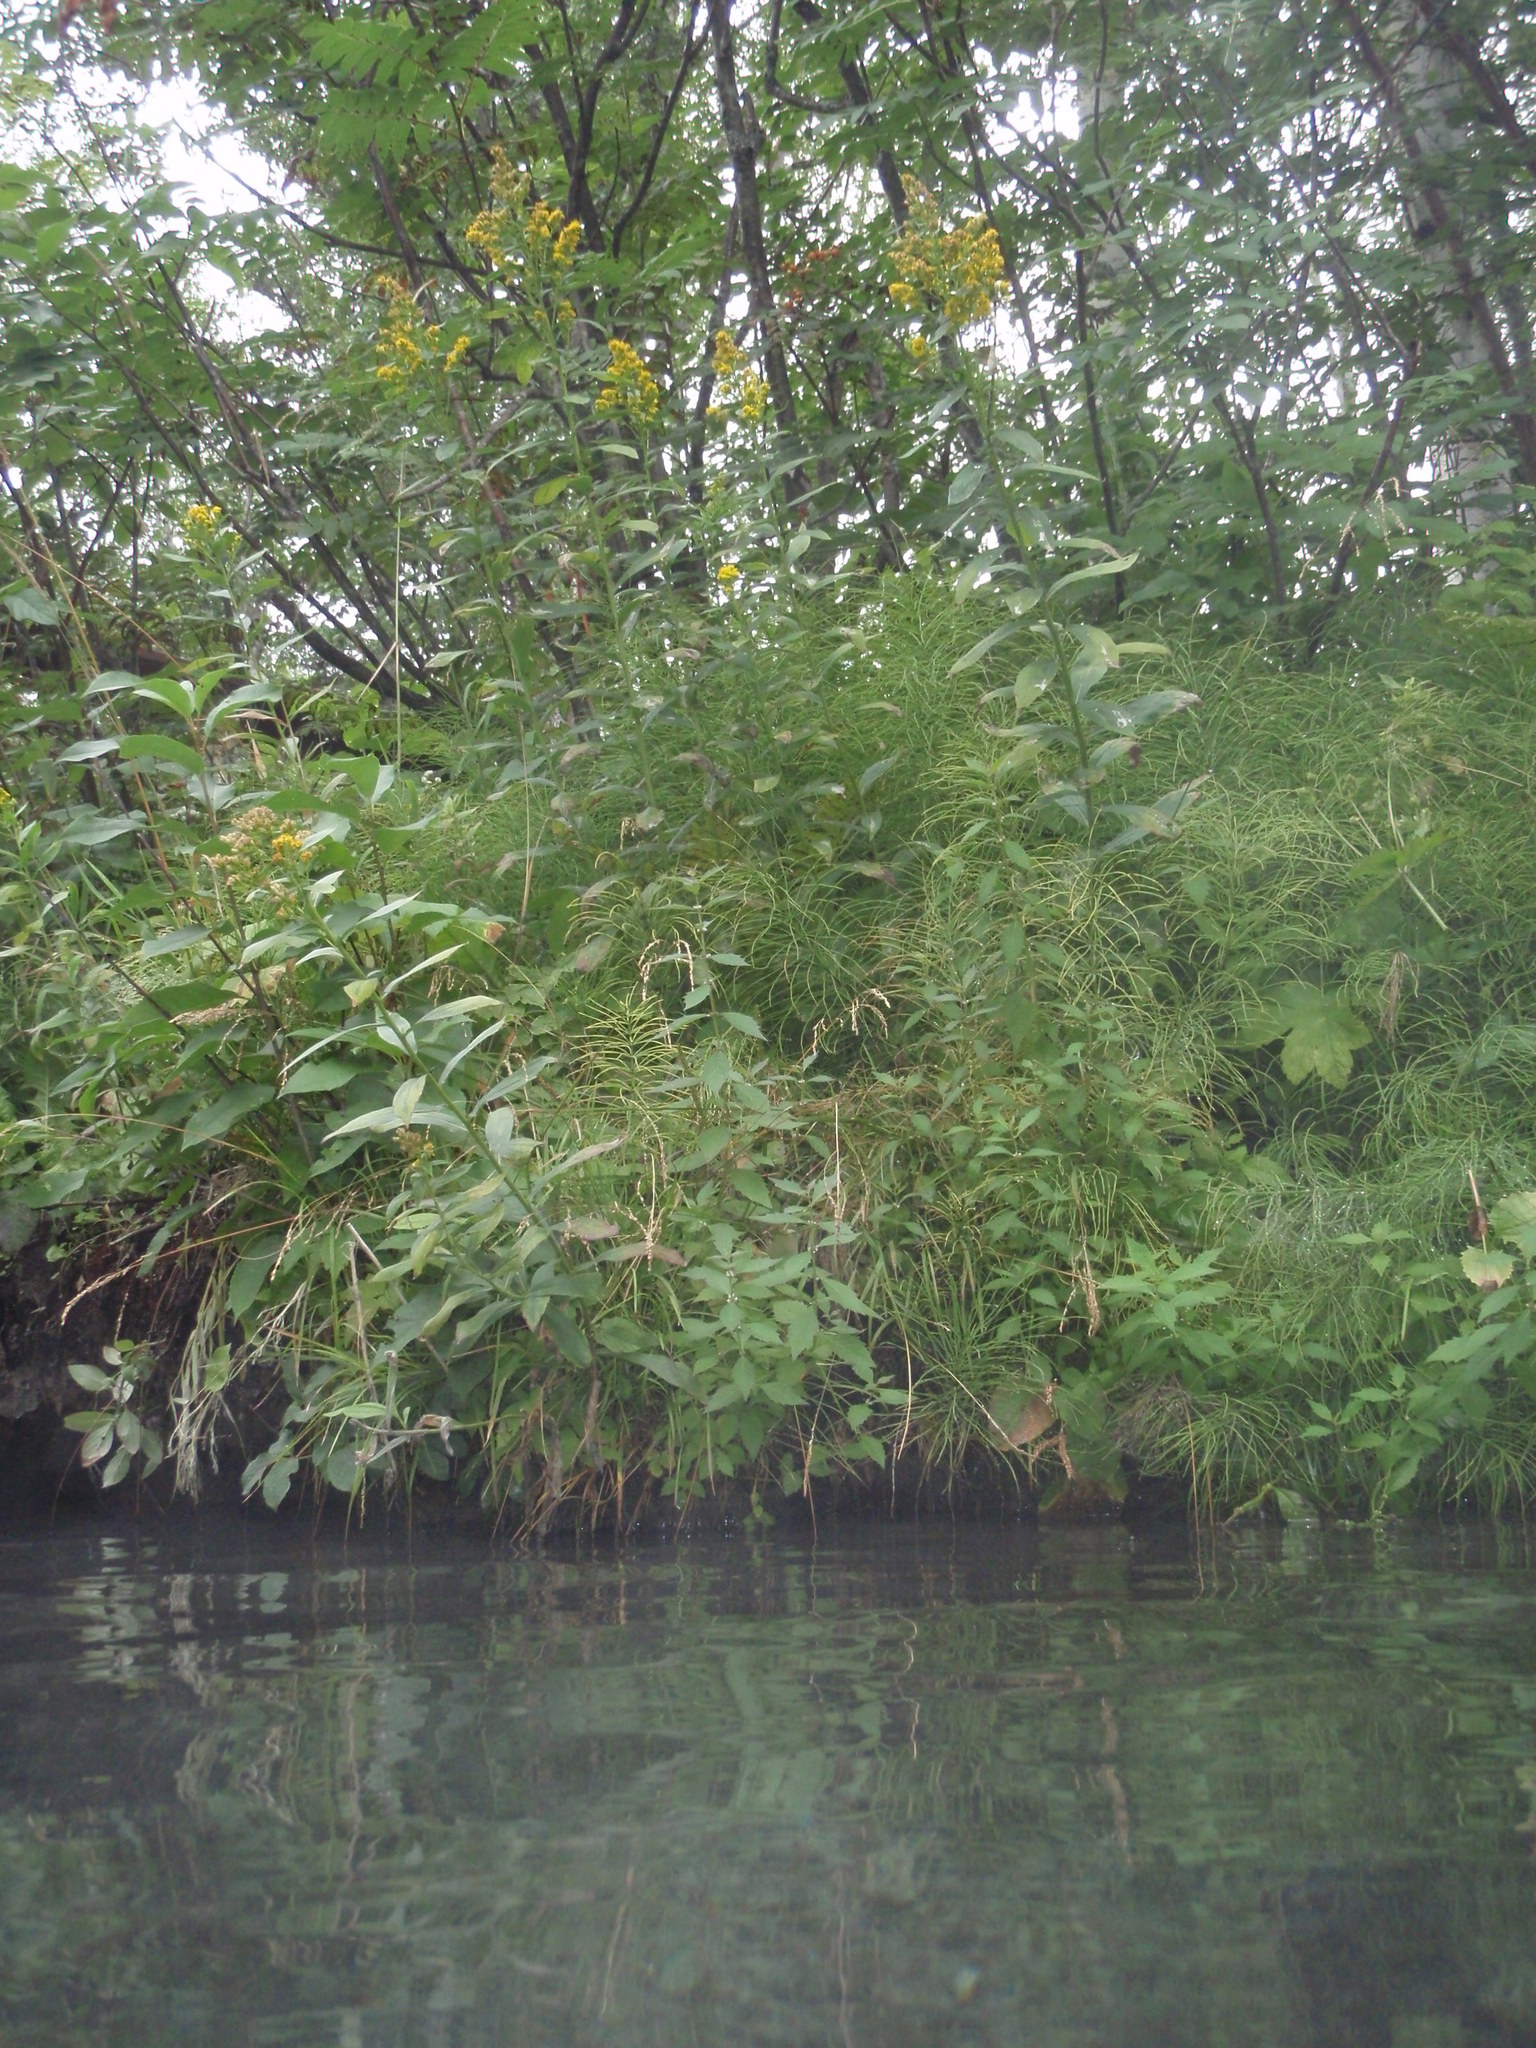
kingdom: Plantae
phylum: Tracheophyta
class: Magnoliopsida
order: Asterales
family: Asteraceae
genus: Solidago
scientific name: Solidago lepida
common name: Western canada goldenrod
